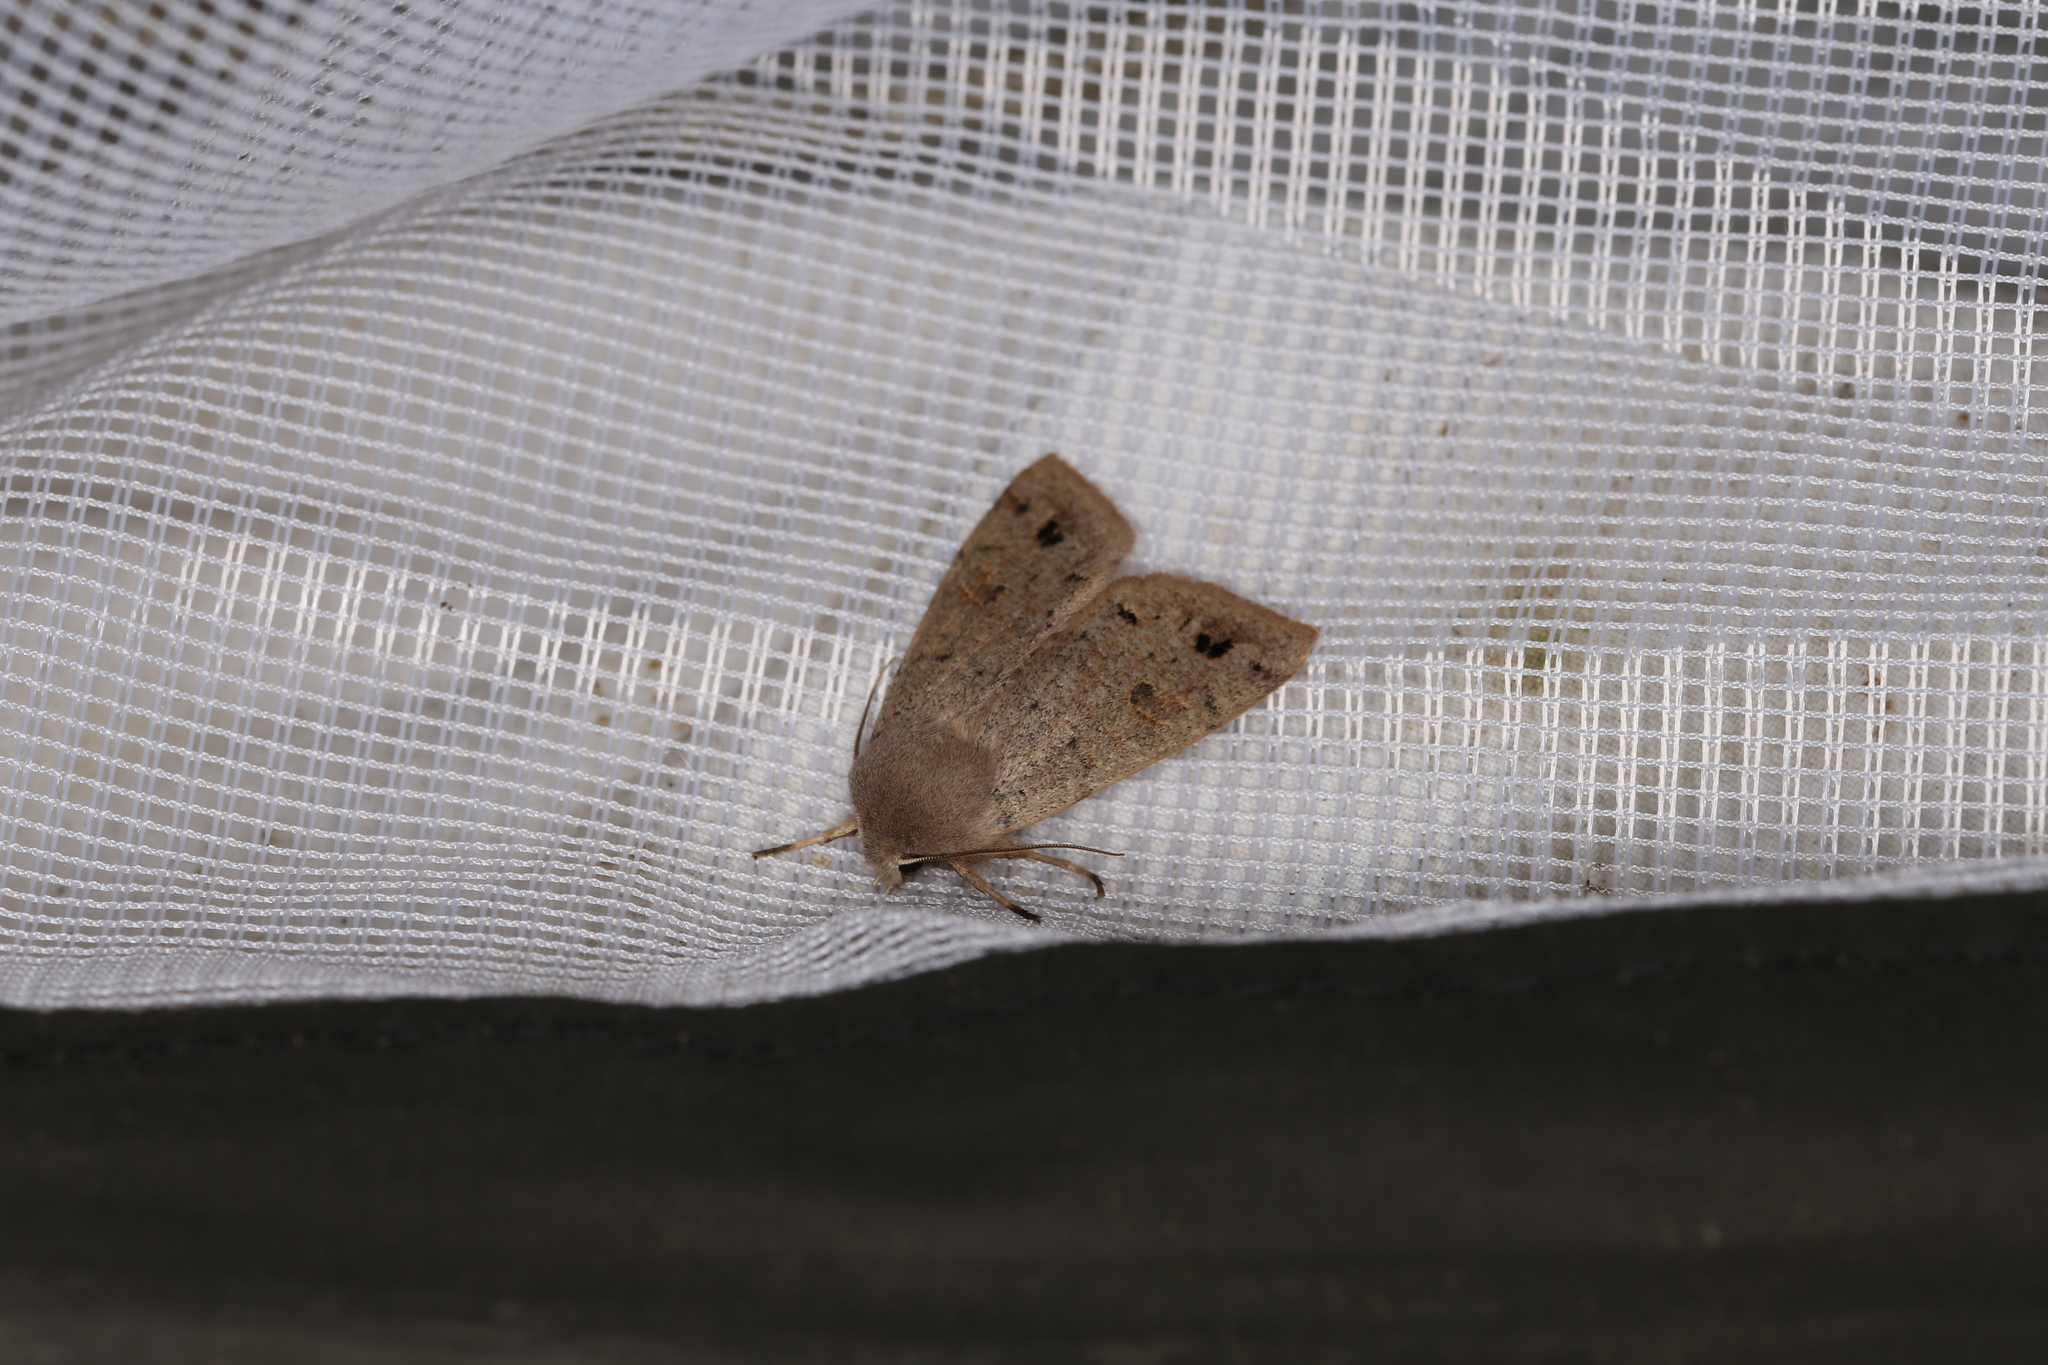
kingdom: Animalia
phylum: Arthropoda
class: Insecta
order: Lepidoptera
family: Noctuidae
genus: Anorthoa
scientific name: Anorthoa munda
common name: Twin-spotted quaker
